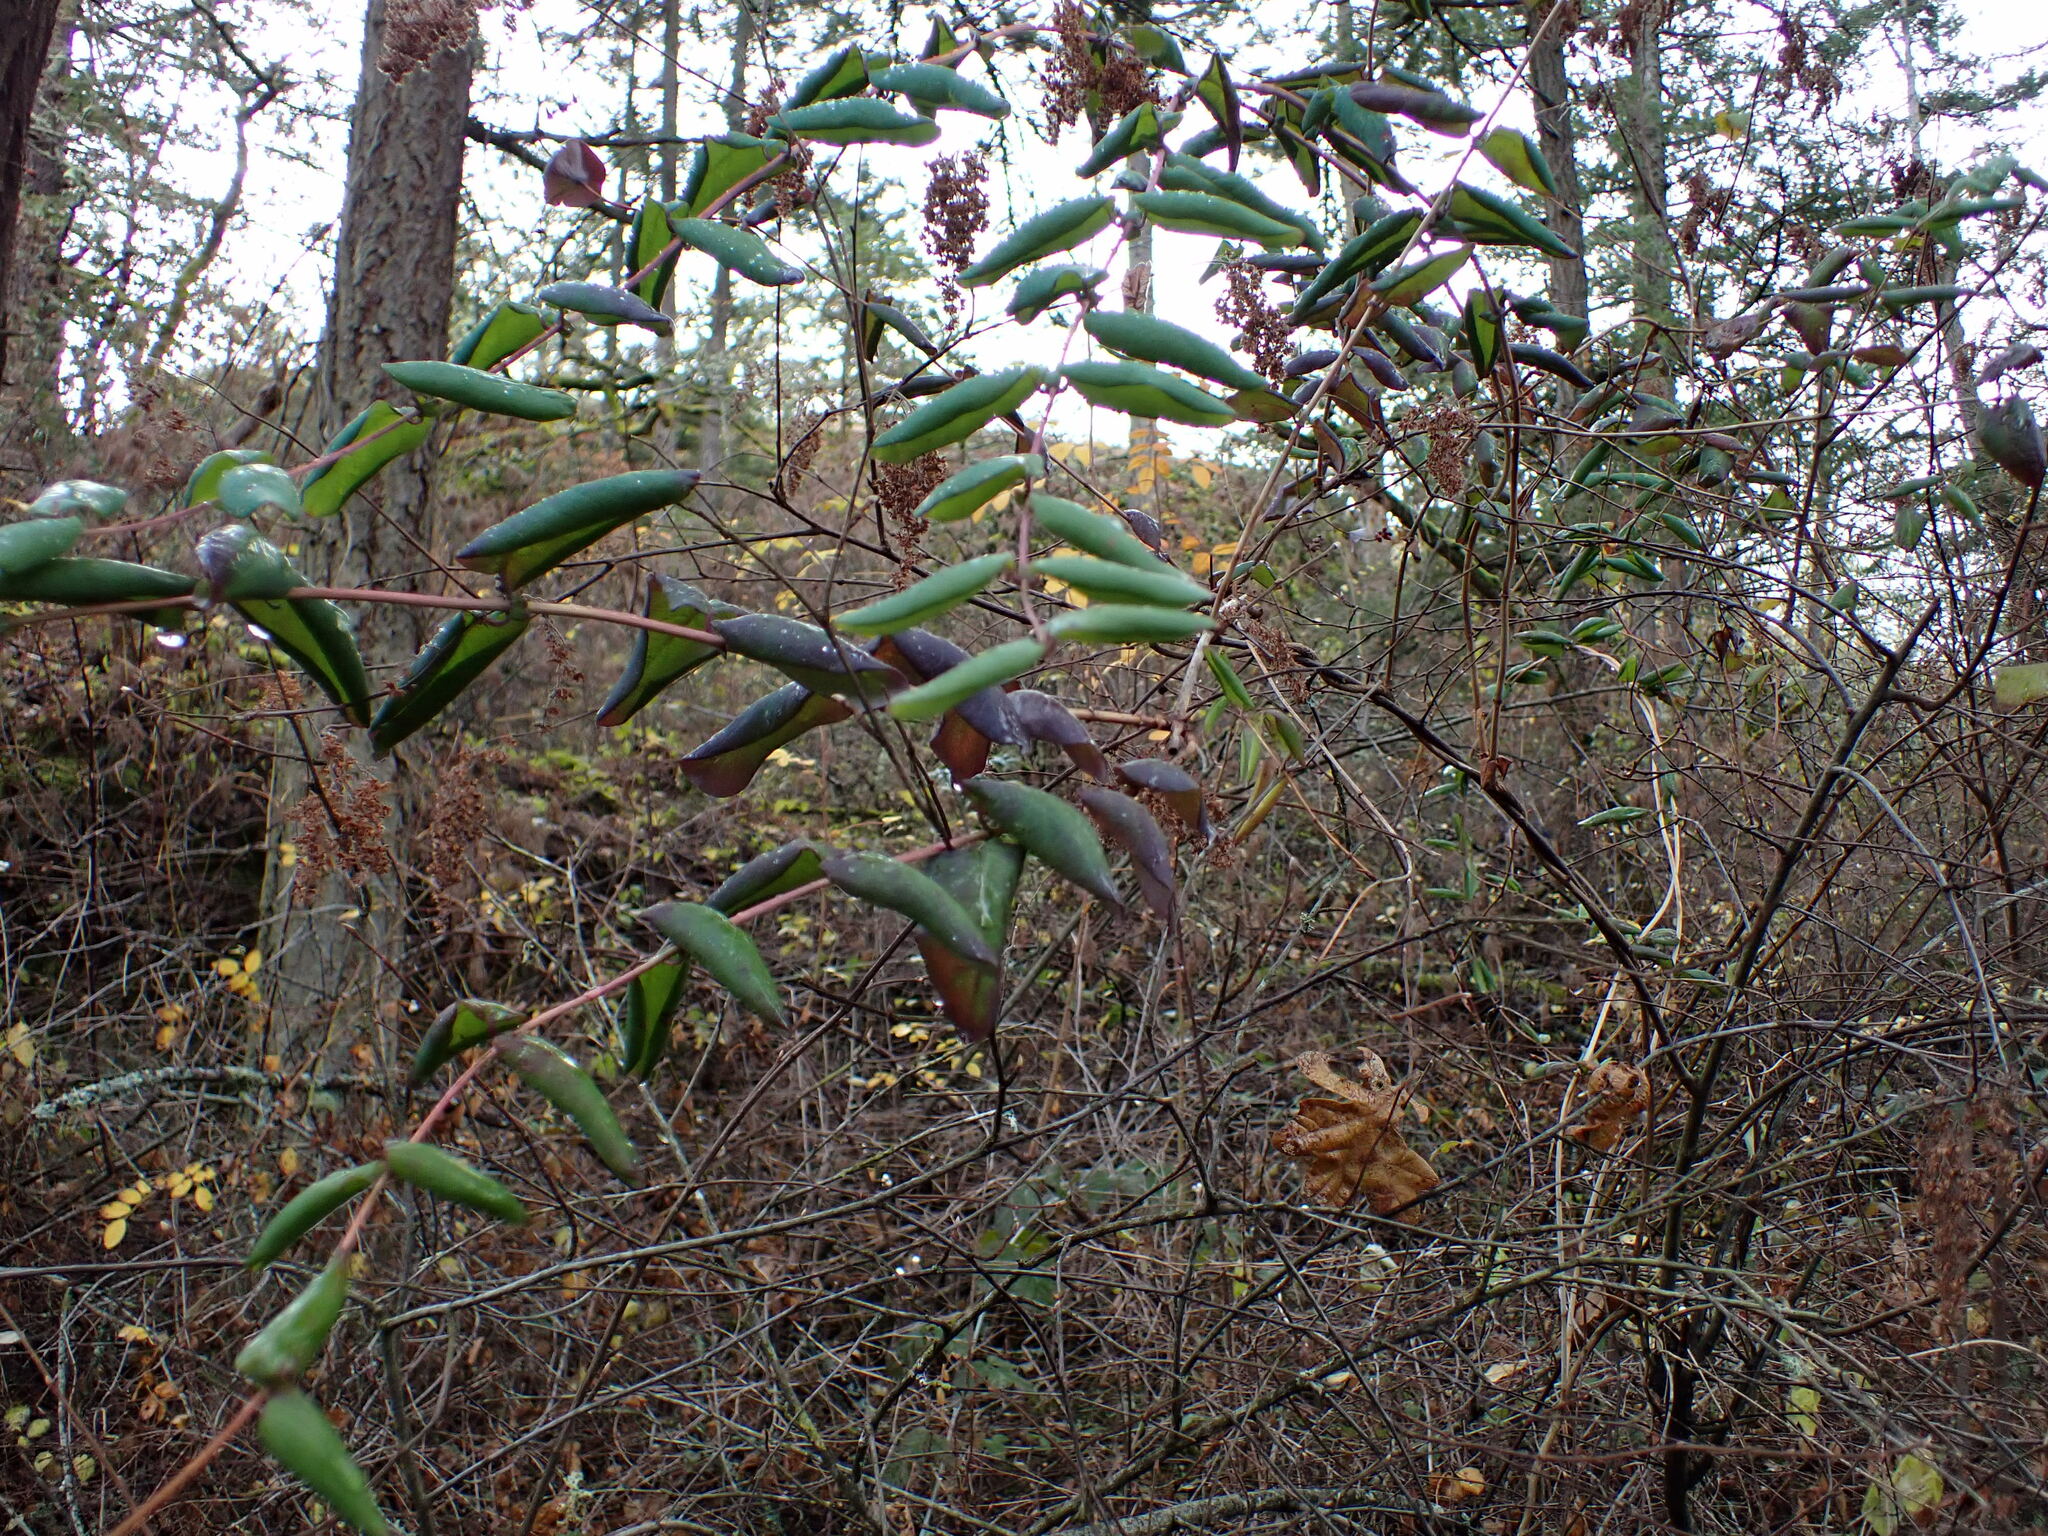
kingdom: Plantae
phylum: Tracheophyta
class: Magnoliopsida
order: Dipsacales
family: Caprifoliaceae
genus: Lonicera
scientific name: Lonicera hispidula
